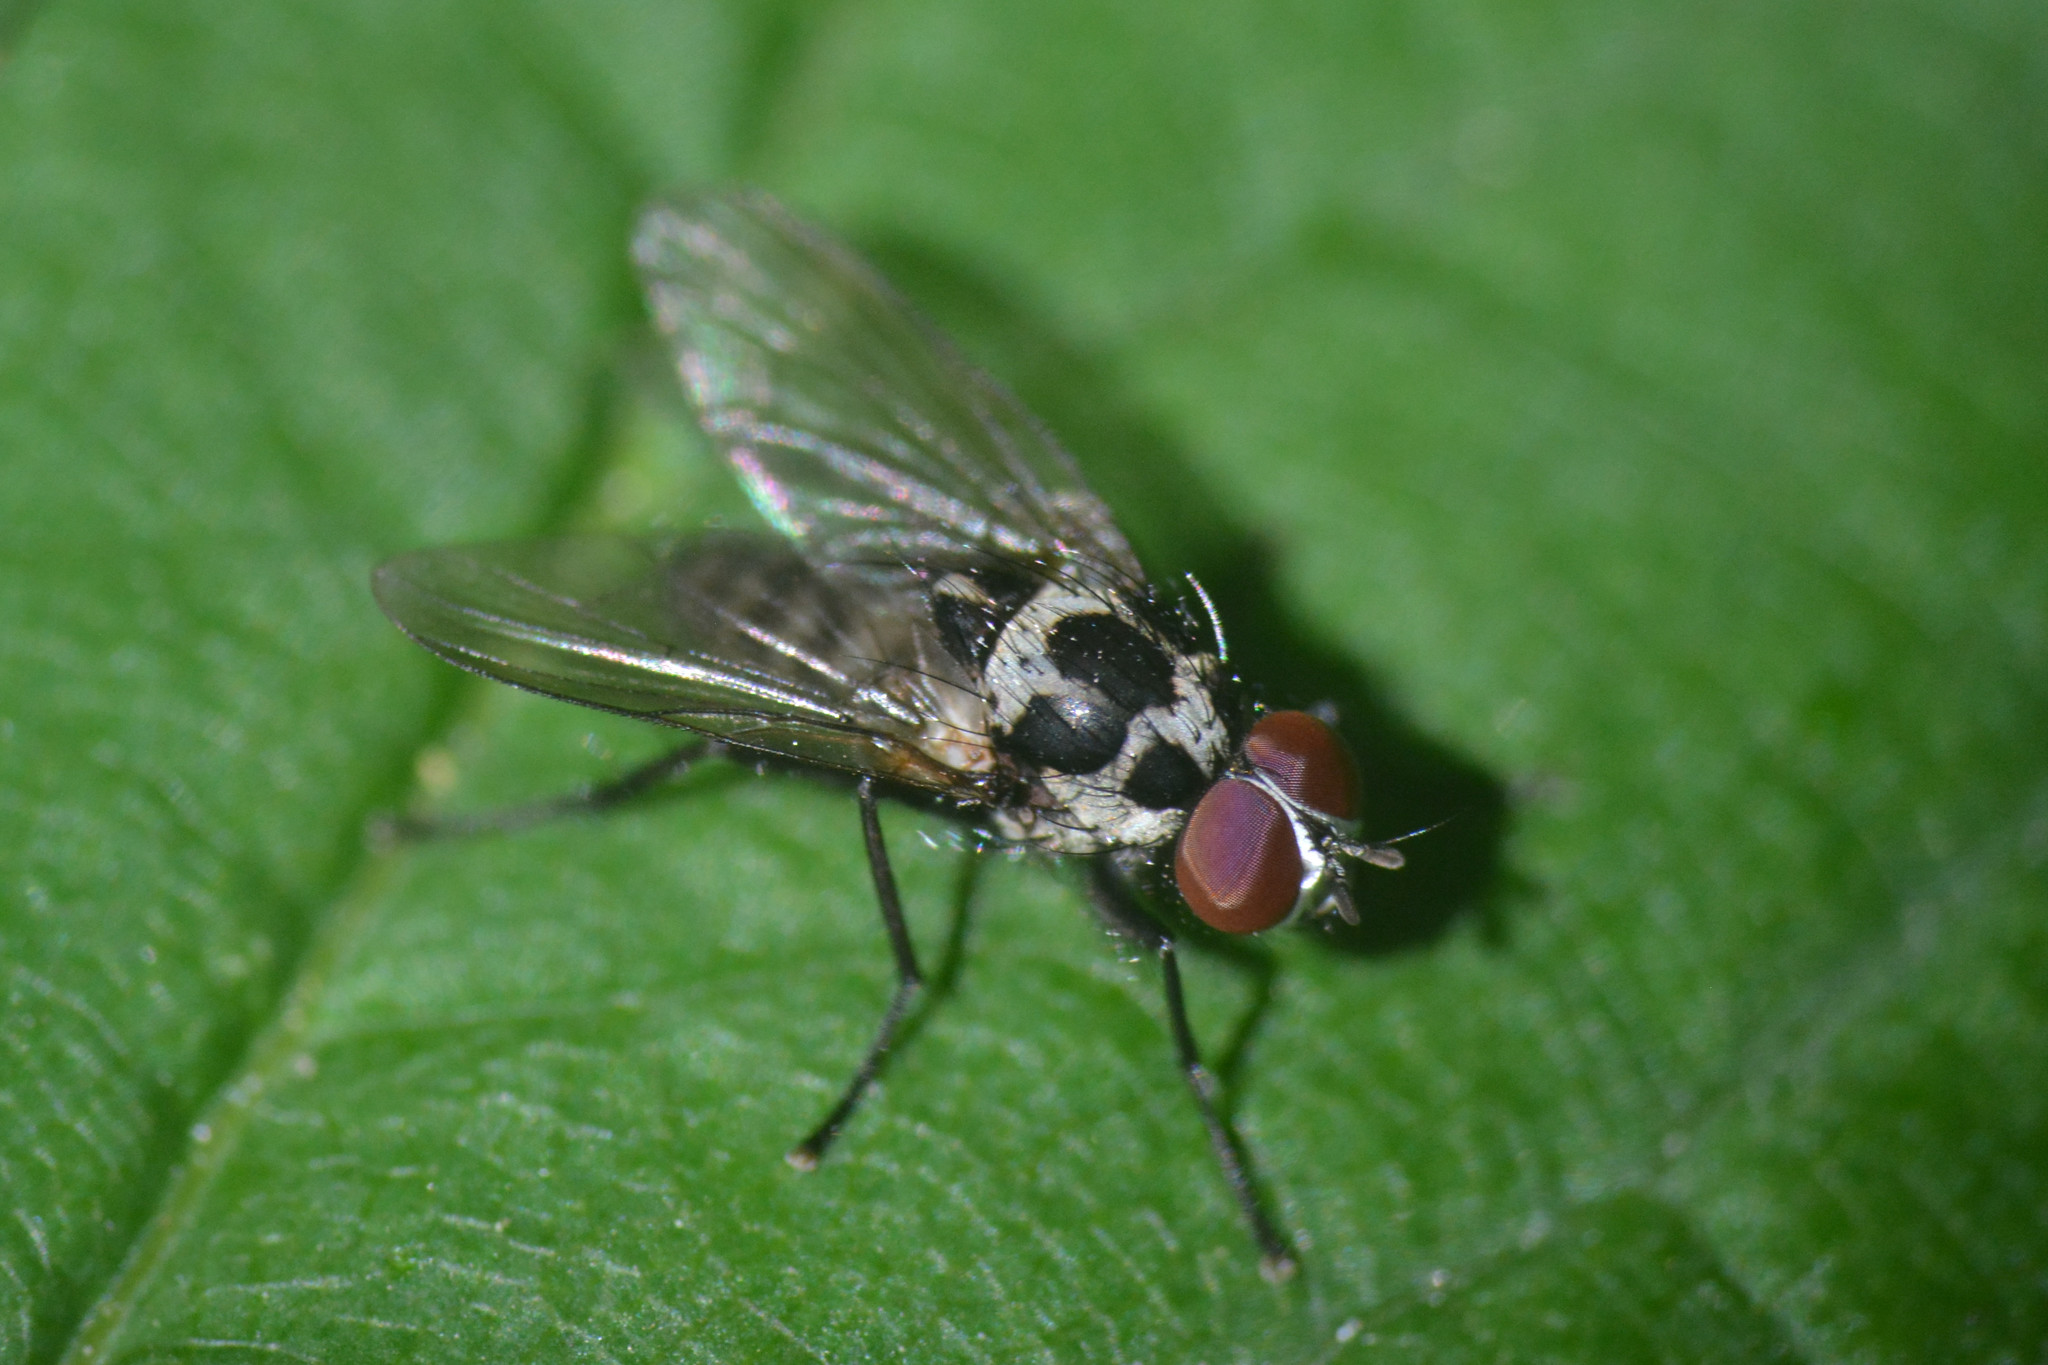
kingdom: Animalia
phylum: Arthropoda
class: Insecta
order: Diptera
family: Anthomyiidae
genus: Anthomyia
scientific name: Anthomyia
